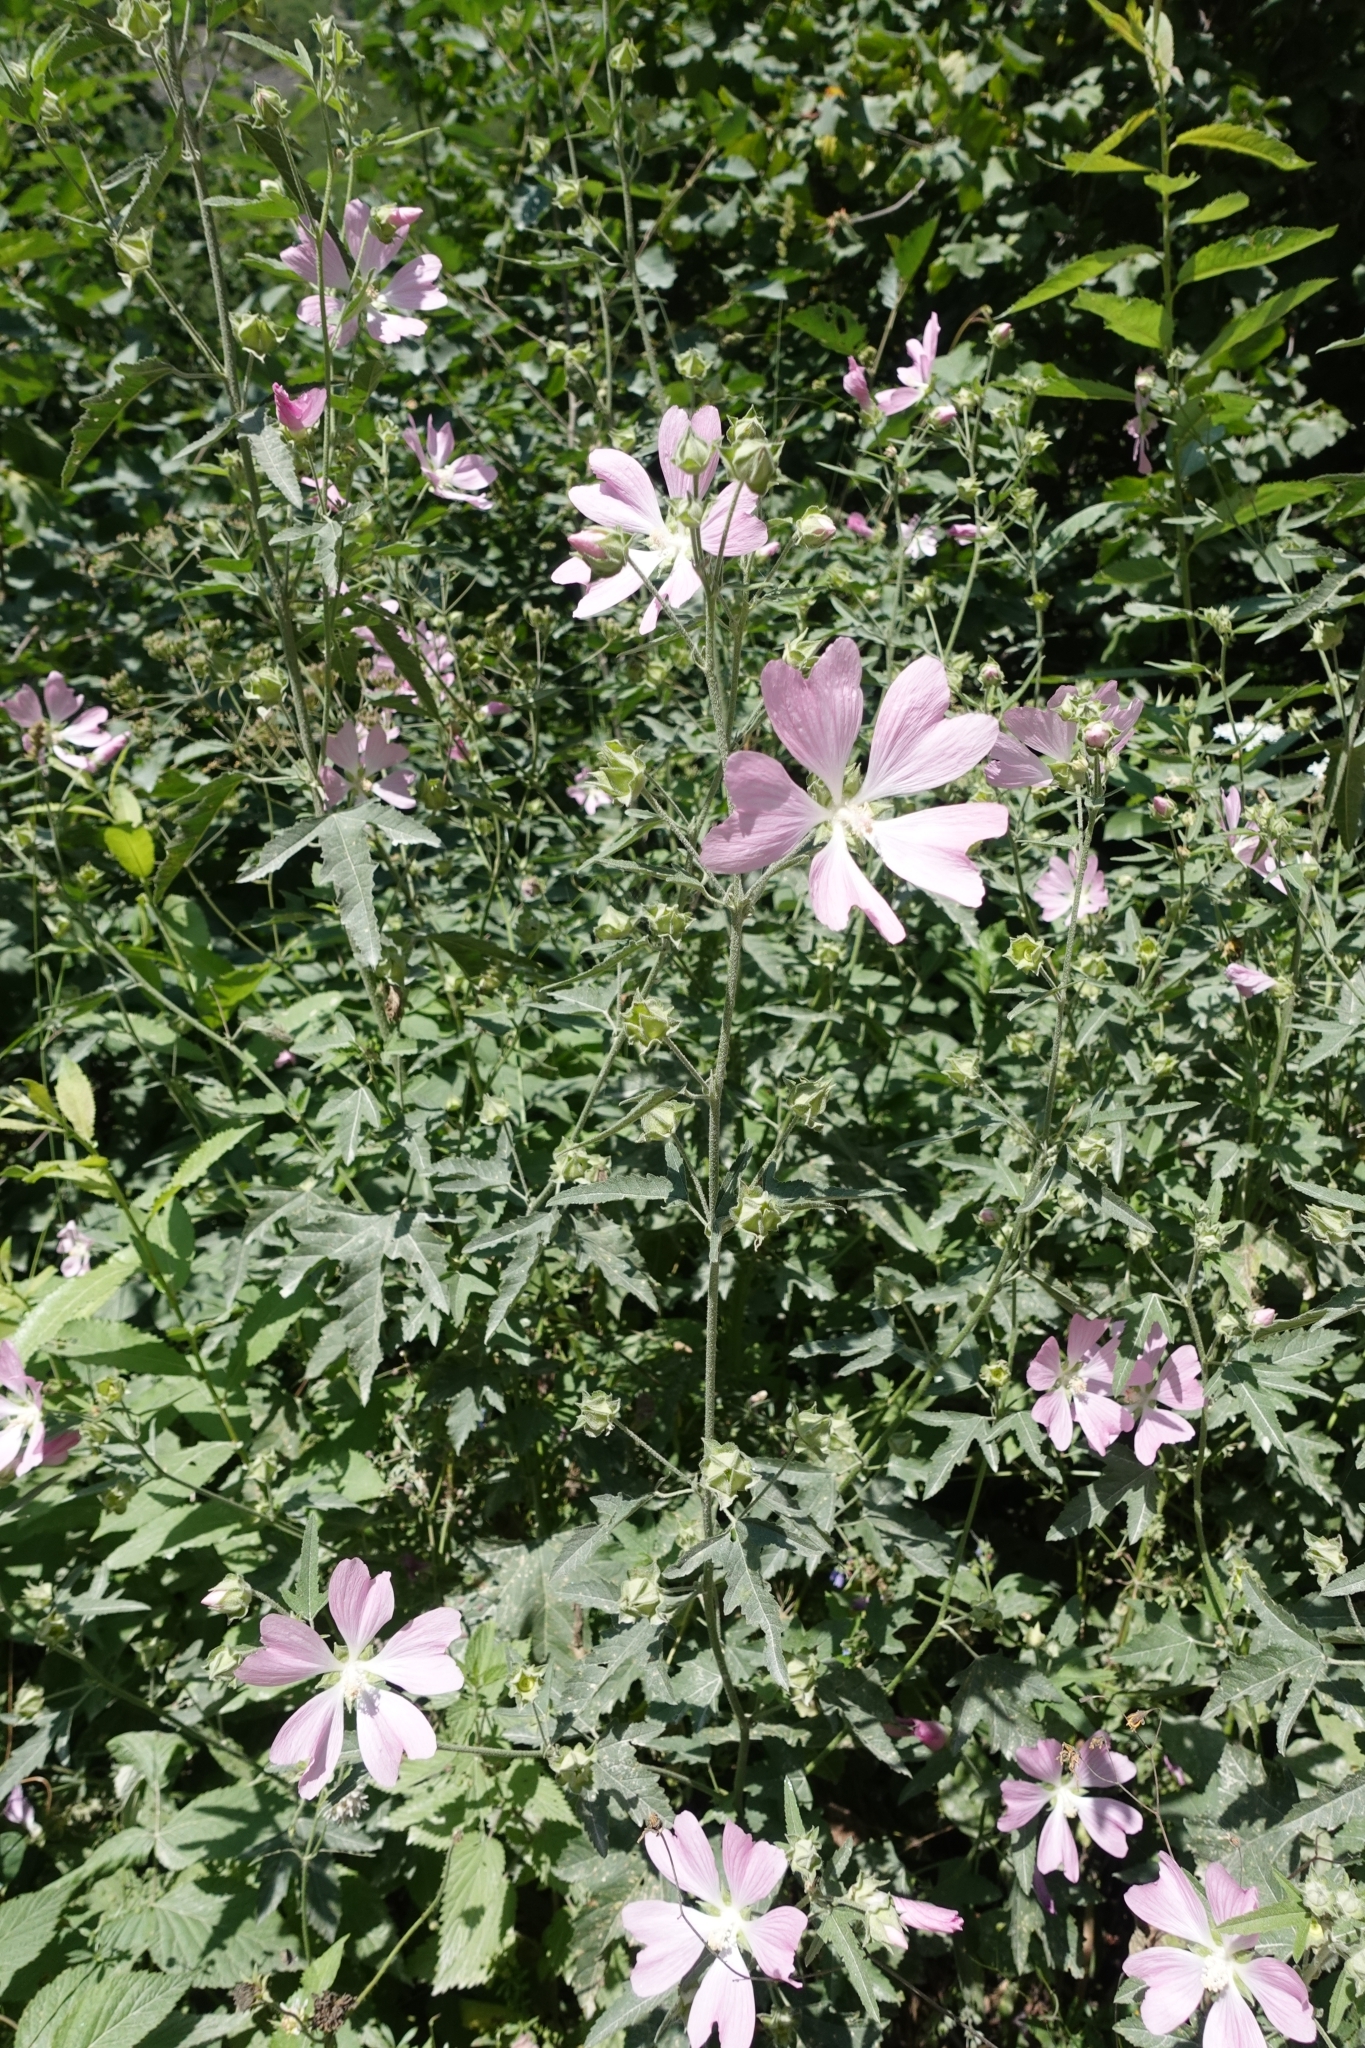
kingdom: Plantae
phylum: Tracheophyta
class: Magnoliopsida
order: Malvales
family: Malvaceae
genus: Malva
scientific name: Malva thuringiaca
